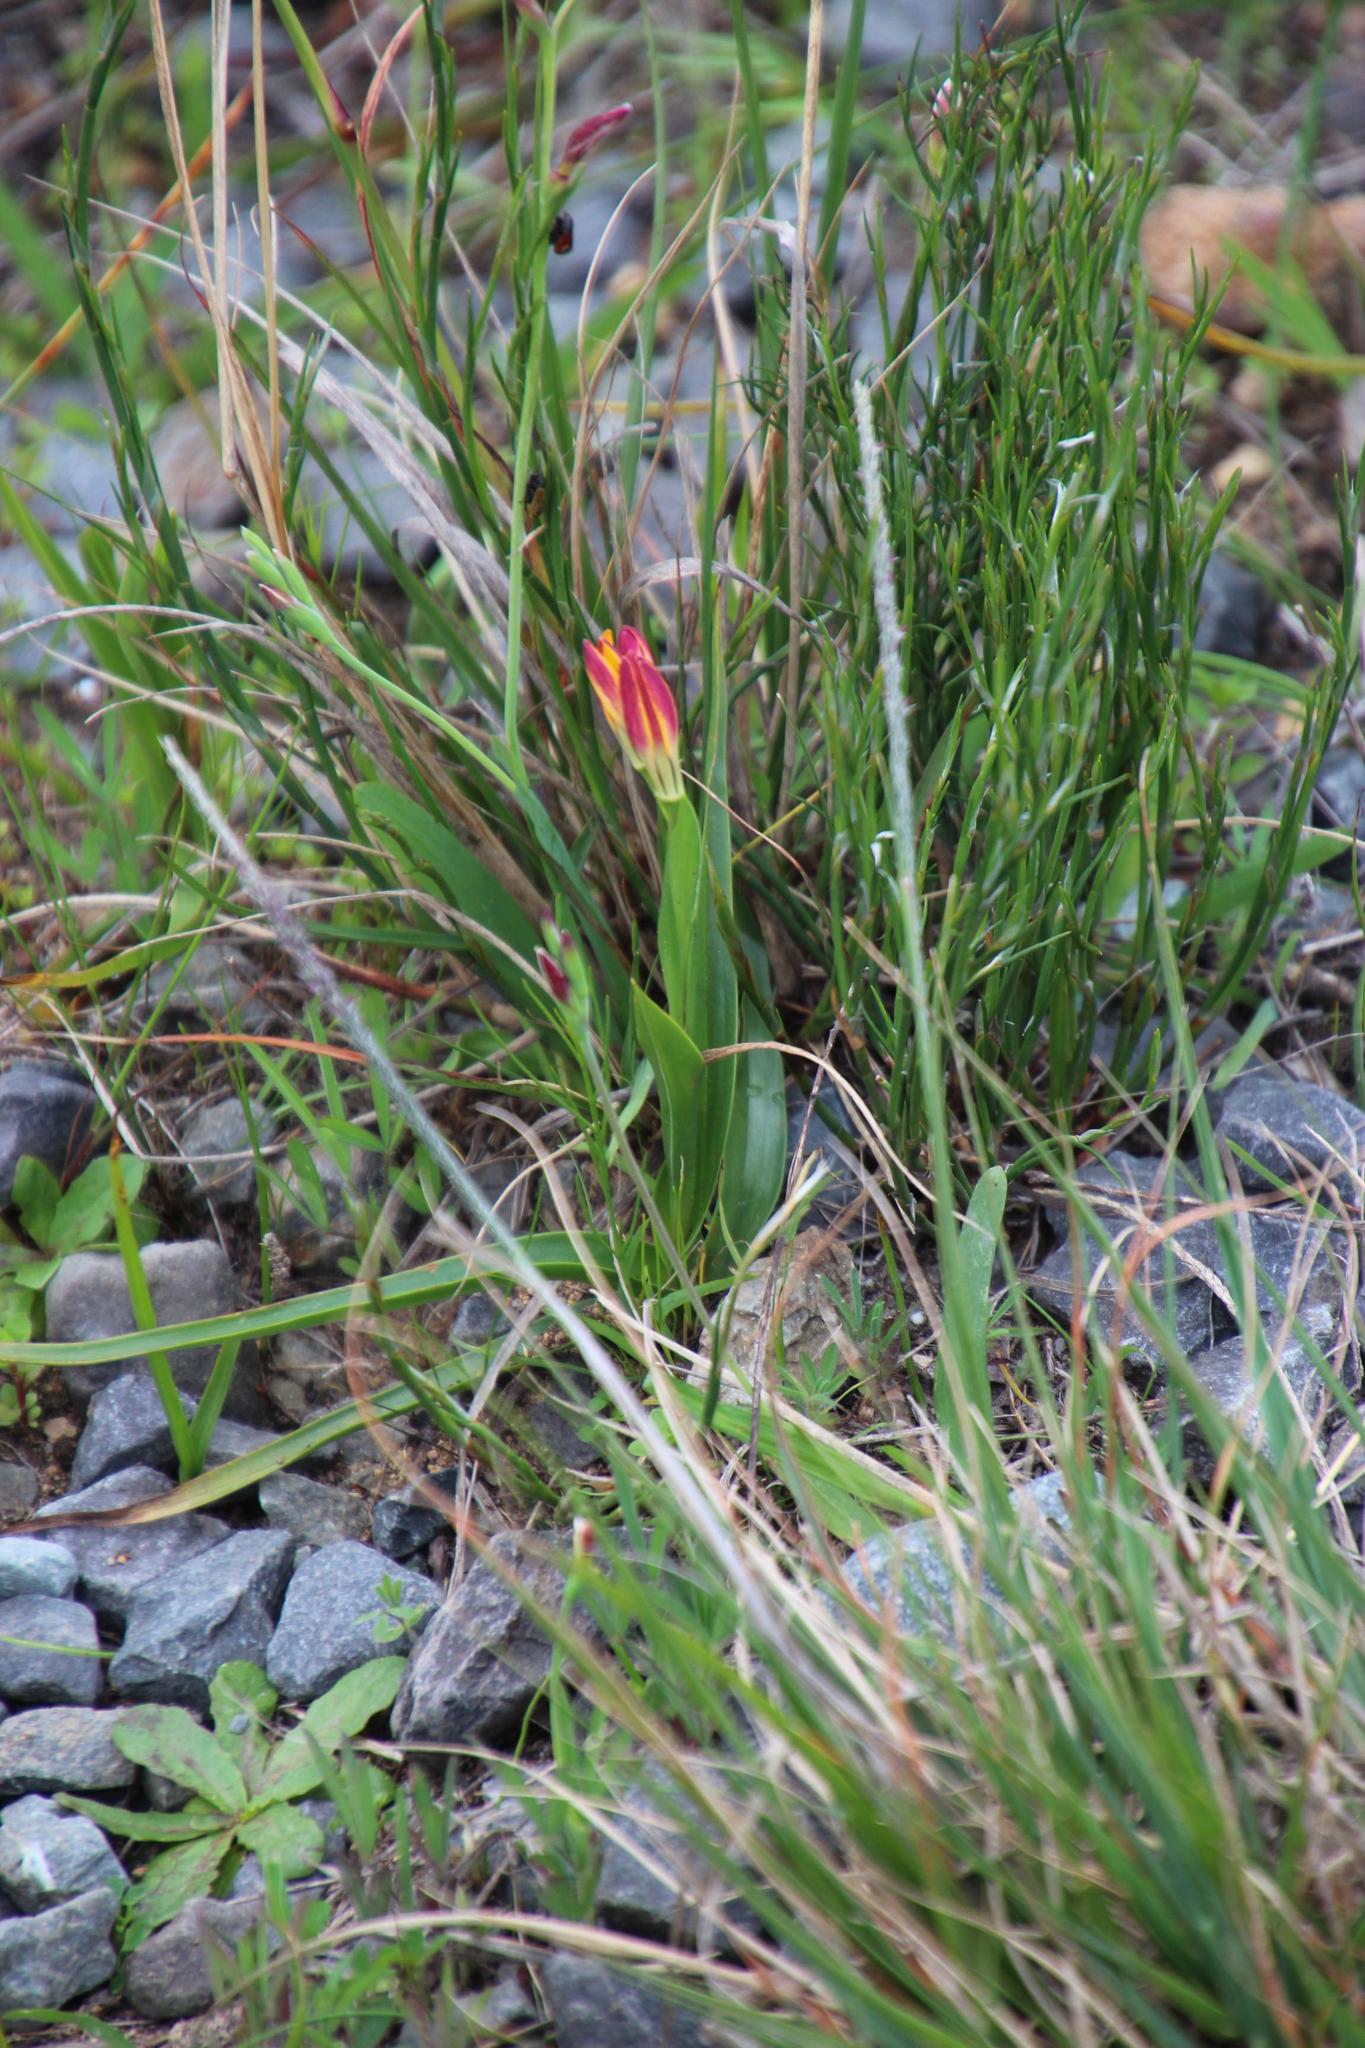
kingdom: Plantae
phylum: Tracheophyta
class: Liliopsida
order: Liliales
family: Colchicaceae
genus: Baeometra
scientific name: Baeometra uniflora
